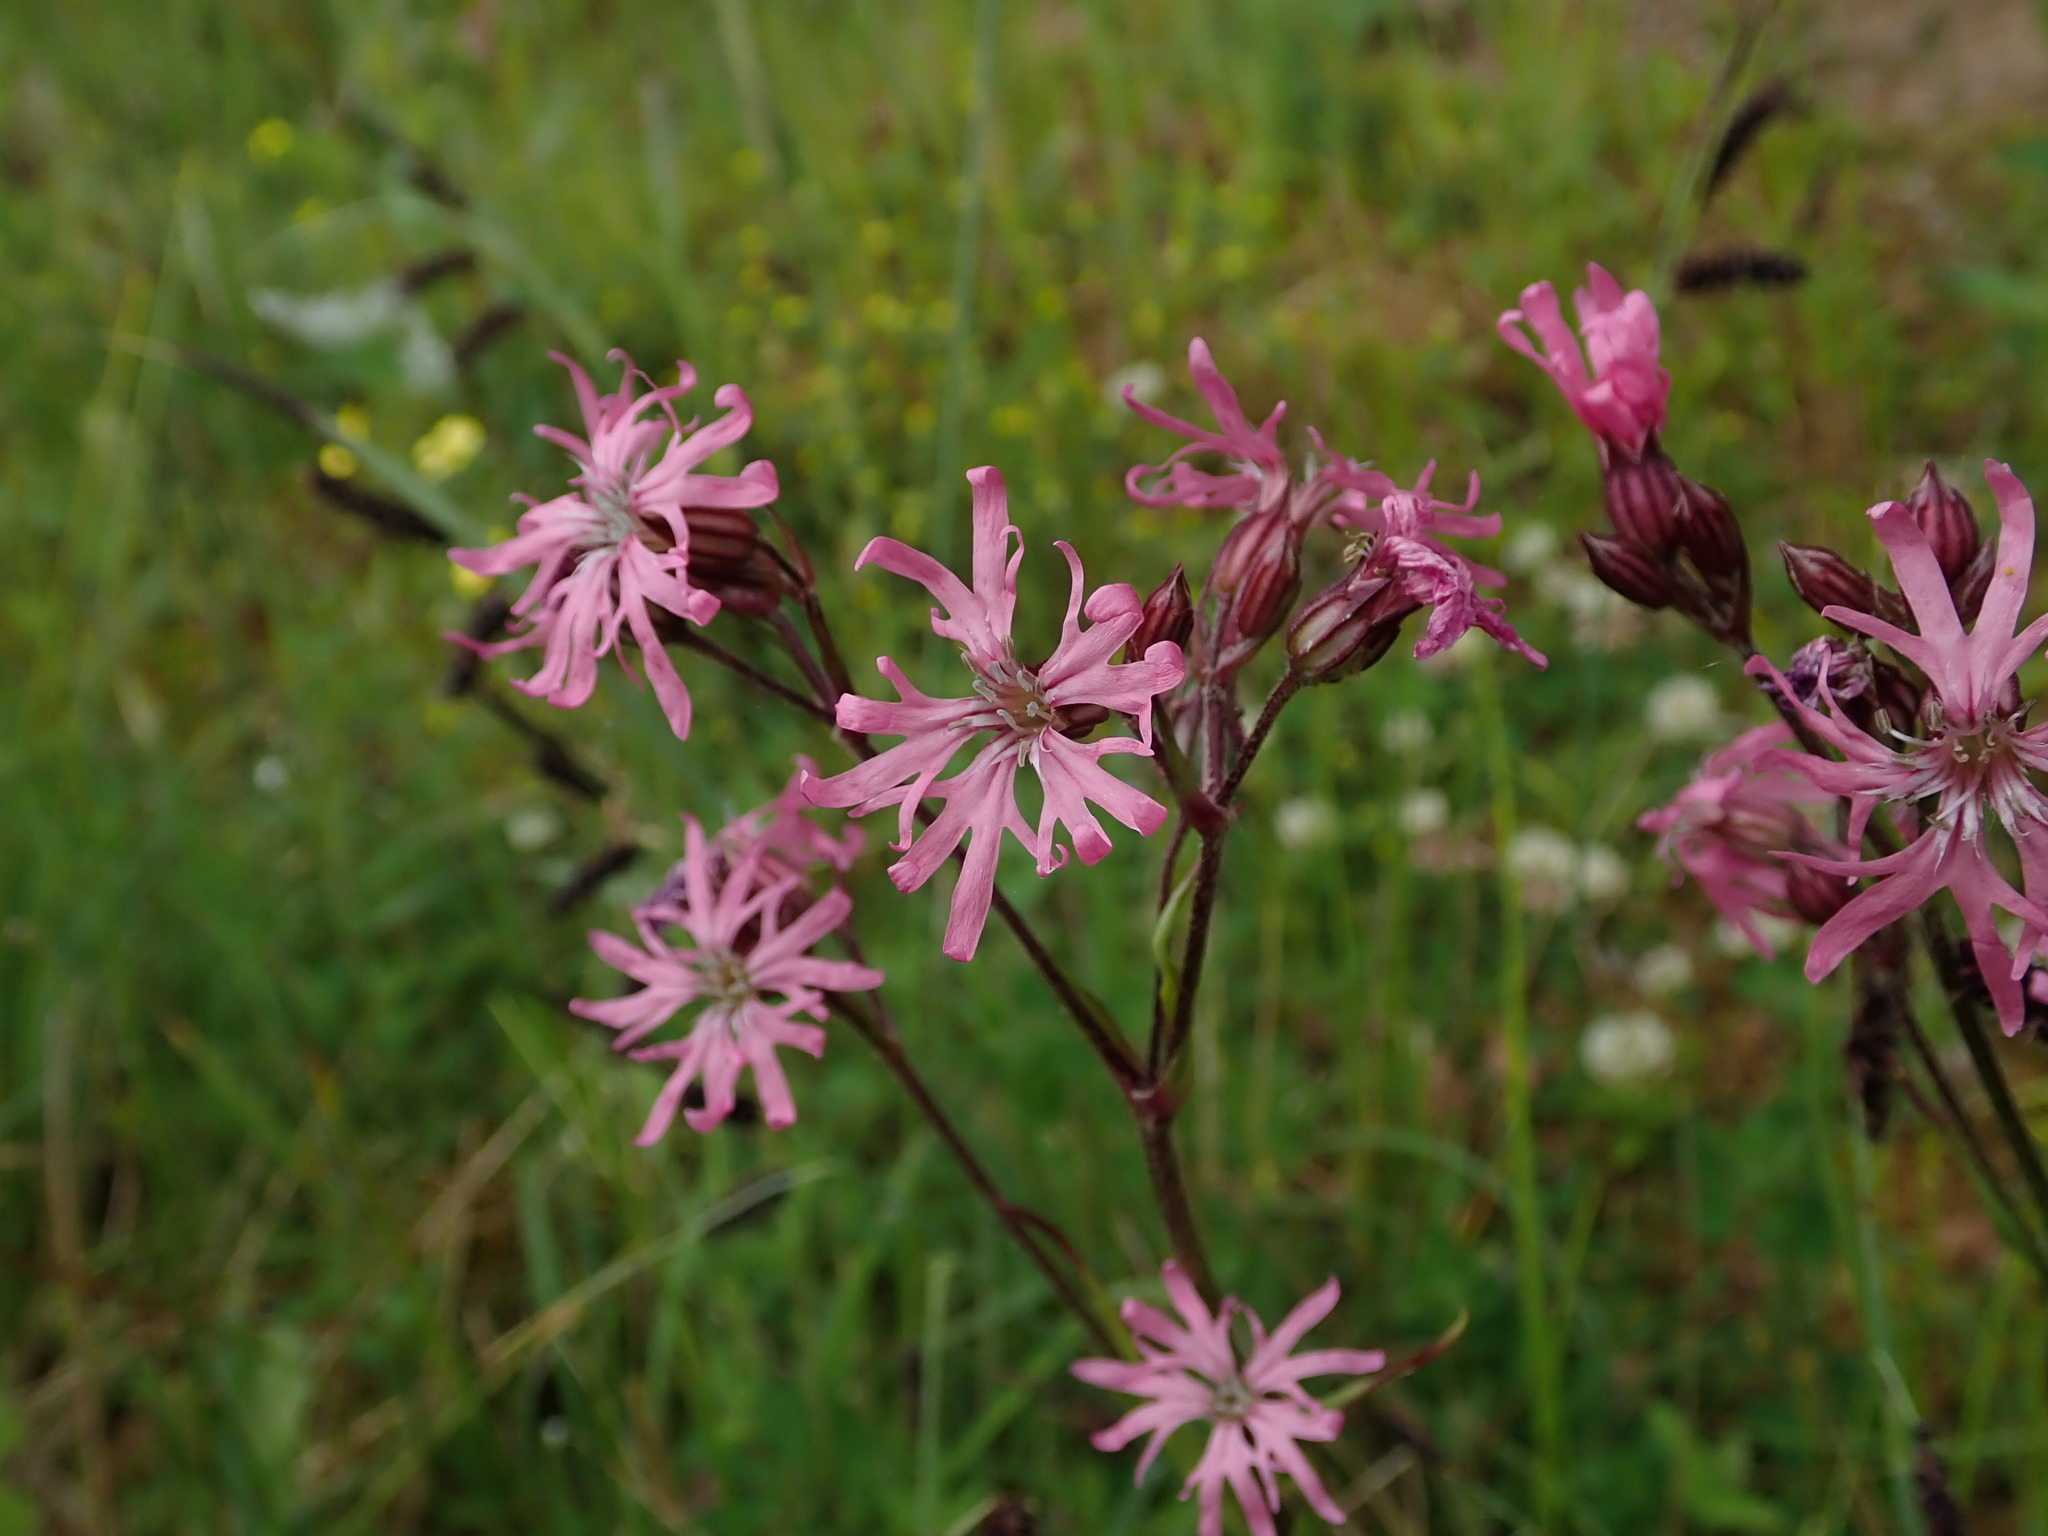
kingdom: Plantae
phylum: Tracheophyta
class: Magnoliopsida
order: Caryophyllales
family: Caryophyllaceae
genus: Silene
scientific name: Silene flos-cuculi
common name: Ragged-robin
